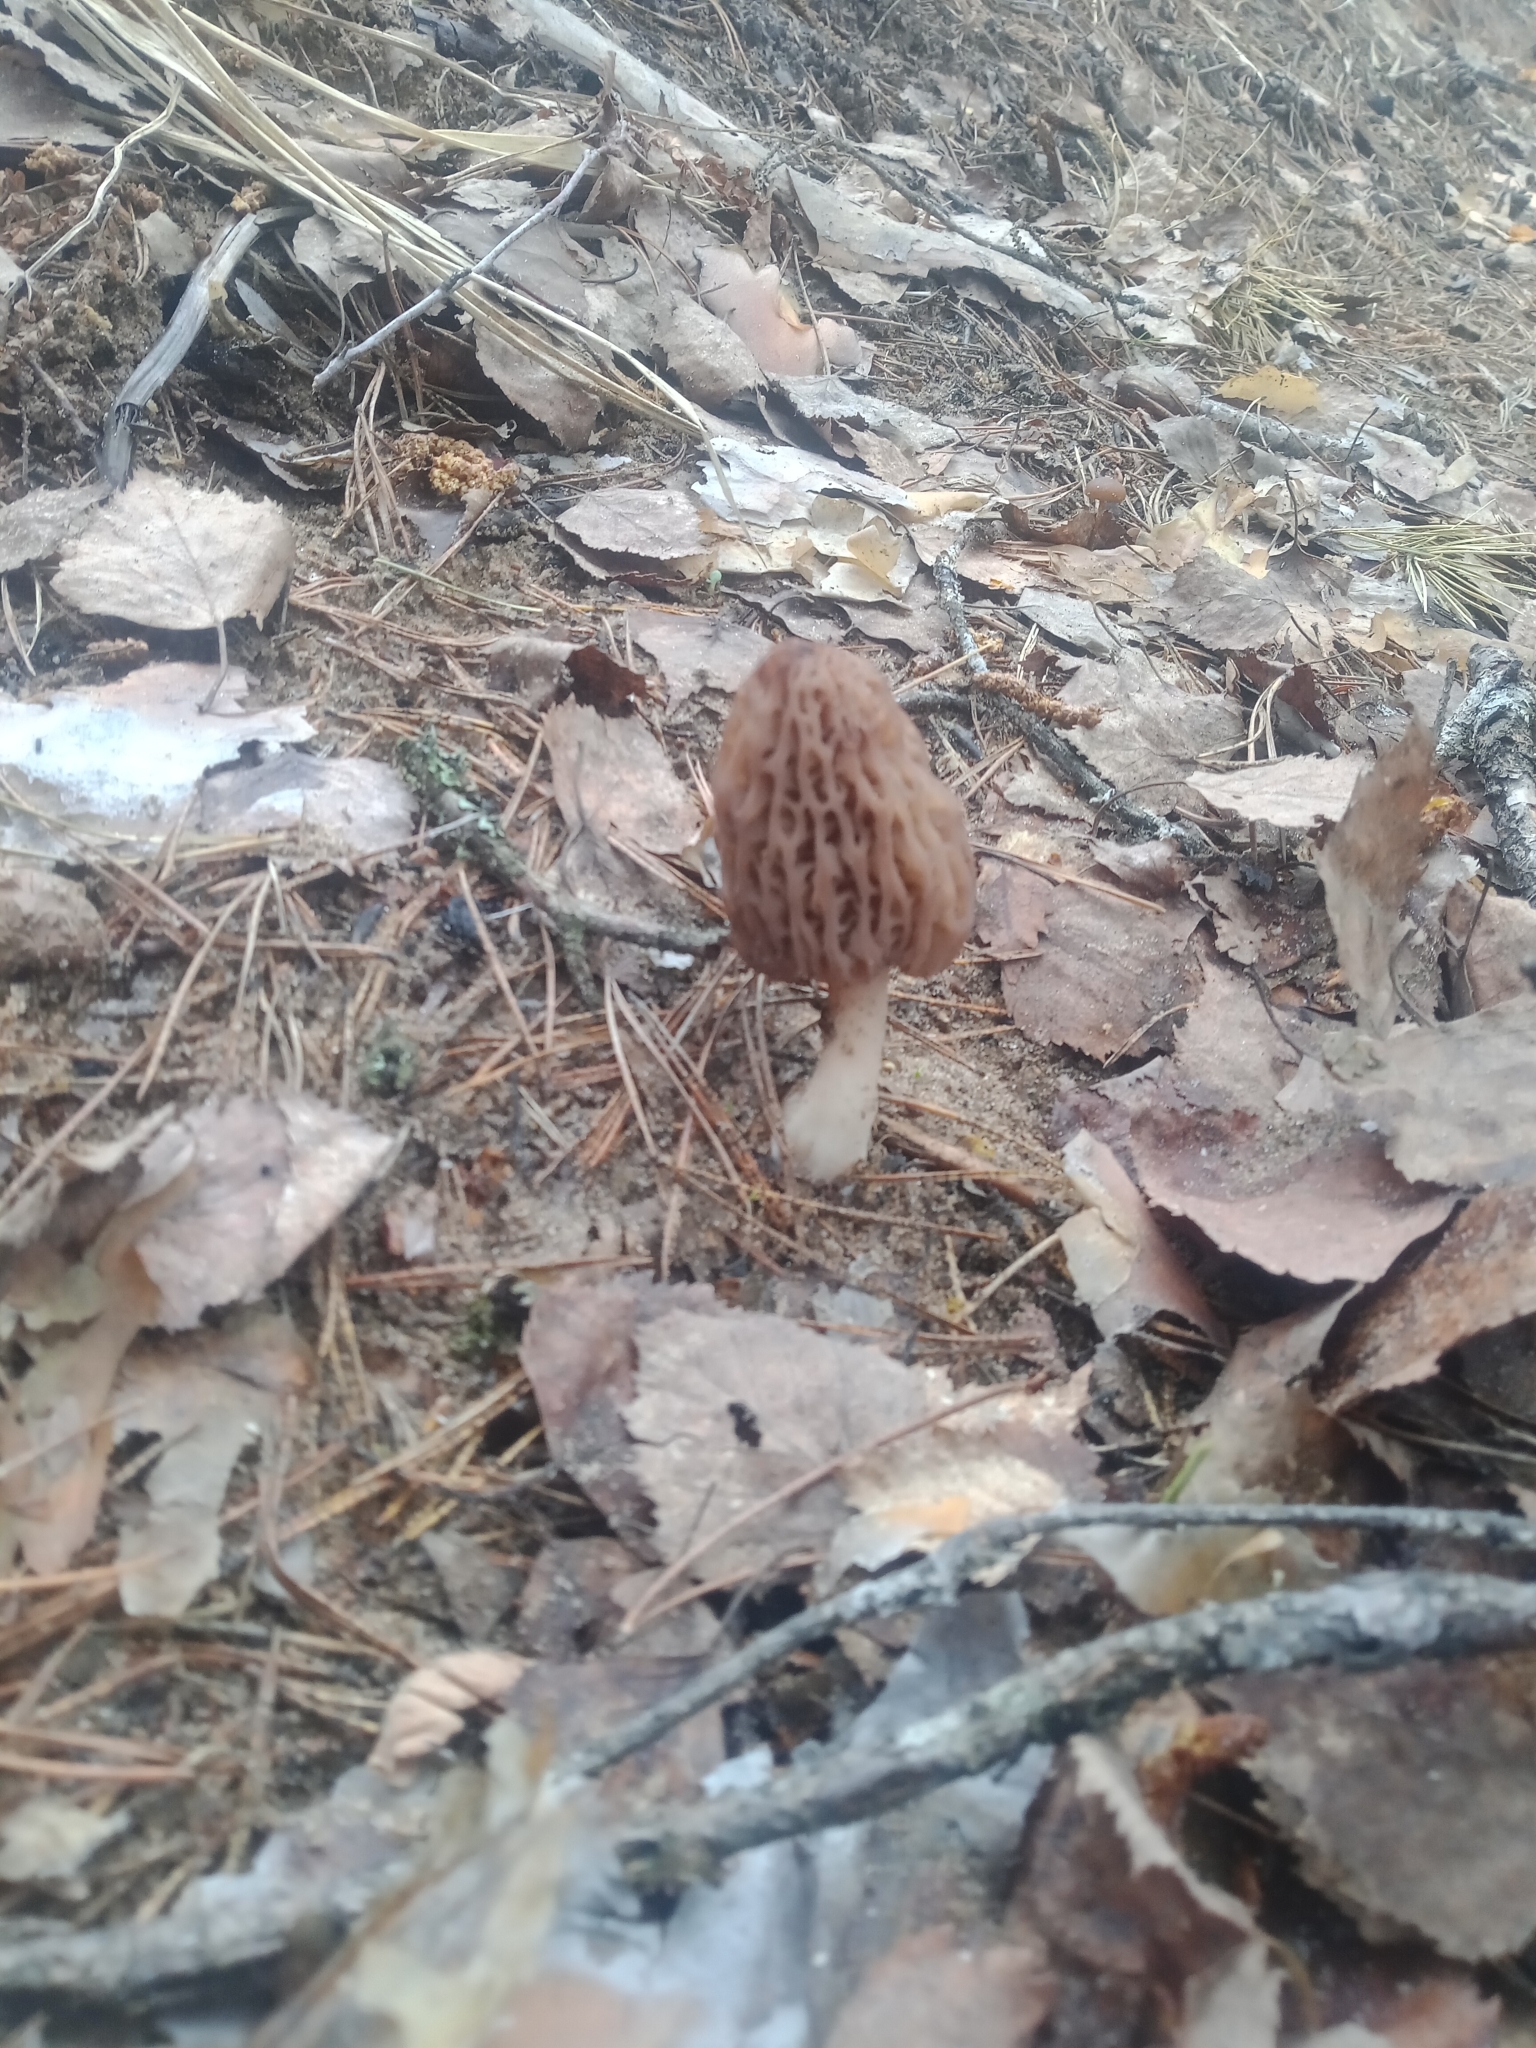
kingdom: Fungi
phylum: Ascomycota
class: Pezizomycetes
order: Pezizales
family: Morchellaceae
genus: Morchella
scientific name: Morchella
